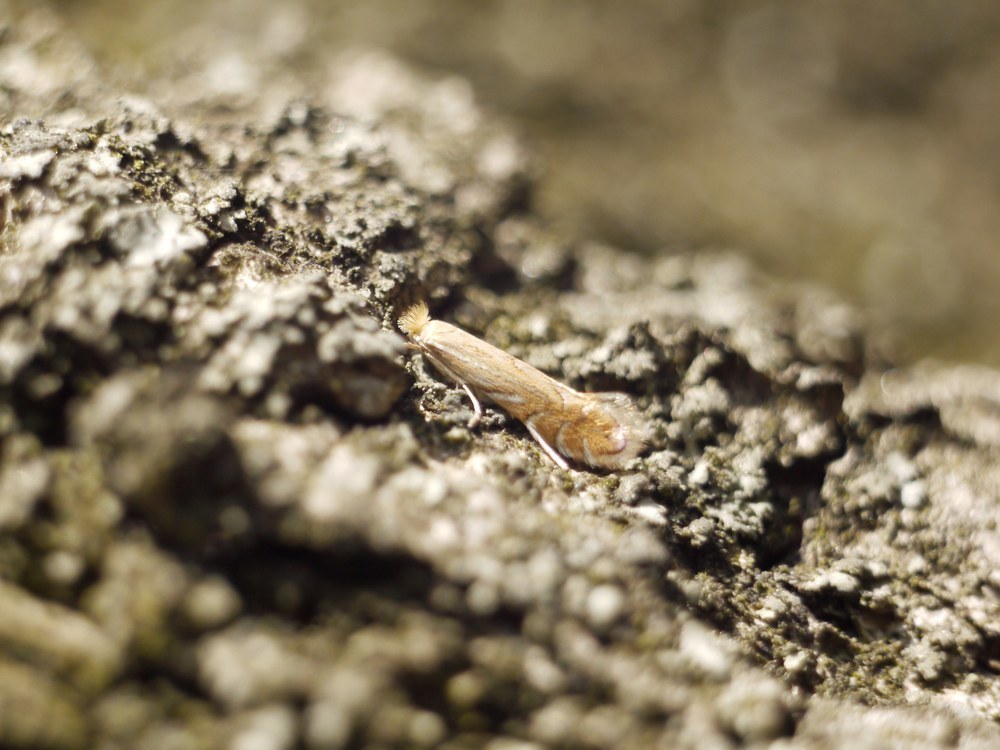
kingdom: Animalia
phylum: Arthropoda
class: Insecta
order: Lepidoptera
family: Gracillariidae
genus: Phyllonorycter
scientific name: Phyllonorycter quercifoliella
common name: Common oak midget
